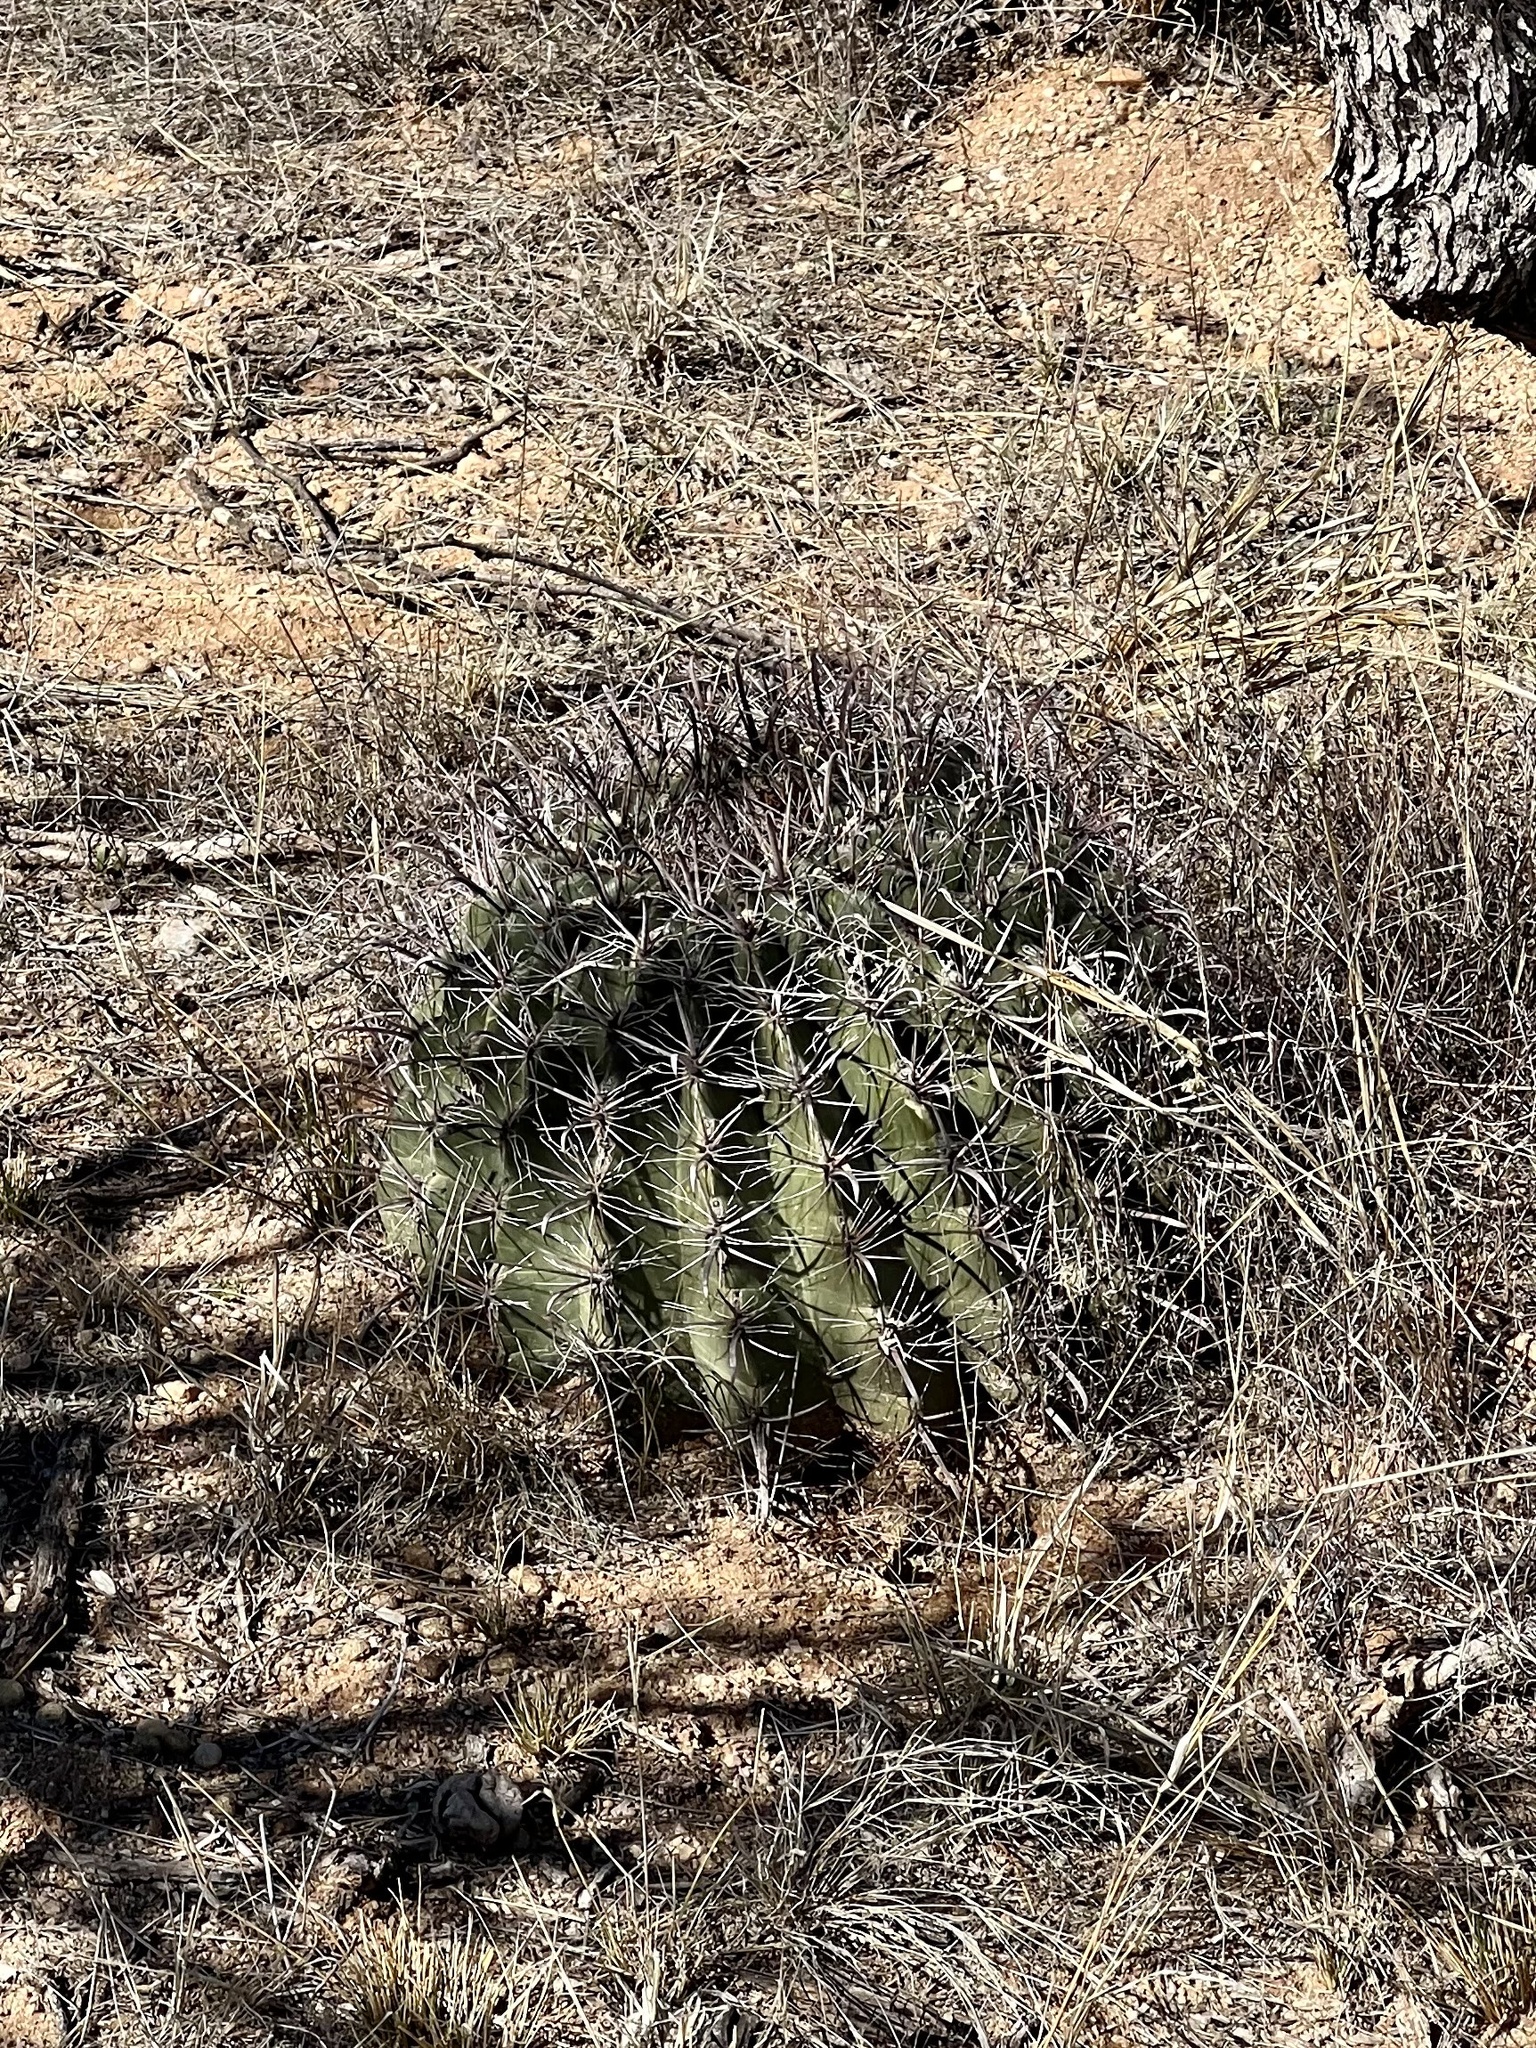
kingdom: Plantae
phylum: Tracheophyta
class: Magnoliopsida
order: Caryophyllales
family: Cactaceae
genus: Ferocactus
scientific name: Ferocactus wislizeni
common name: Candy barrel cactus
